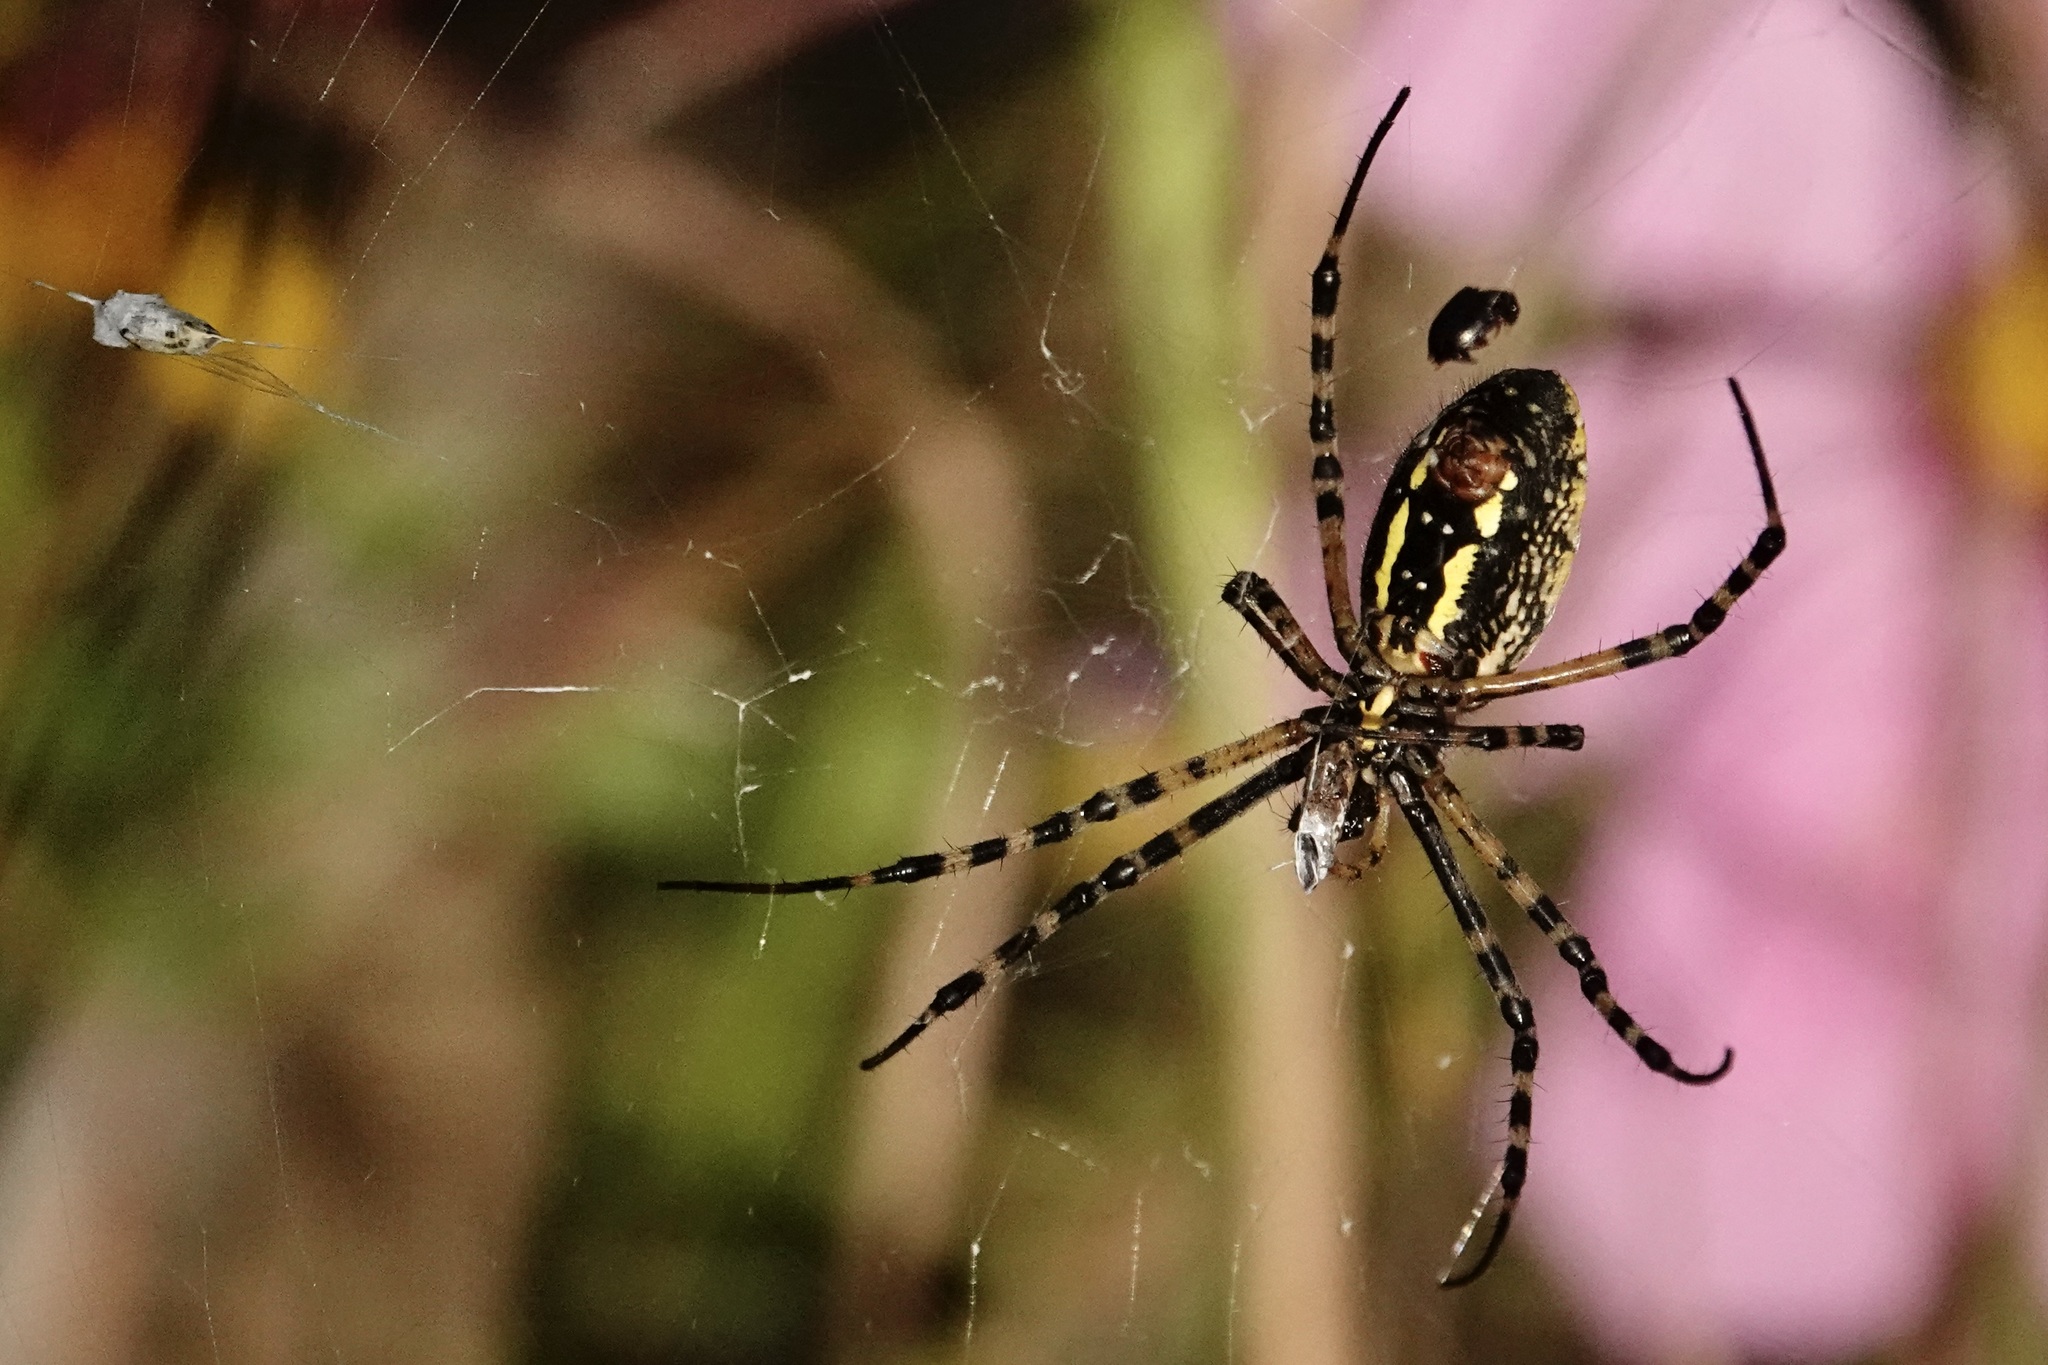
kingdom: Animalia
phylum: Arthropoda
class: Arachnida
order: Araneae
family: Araneidae
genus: Argiope
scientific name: Argiope trifasciata
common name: Banded garden spider
